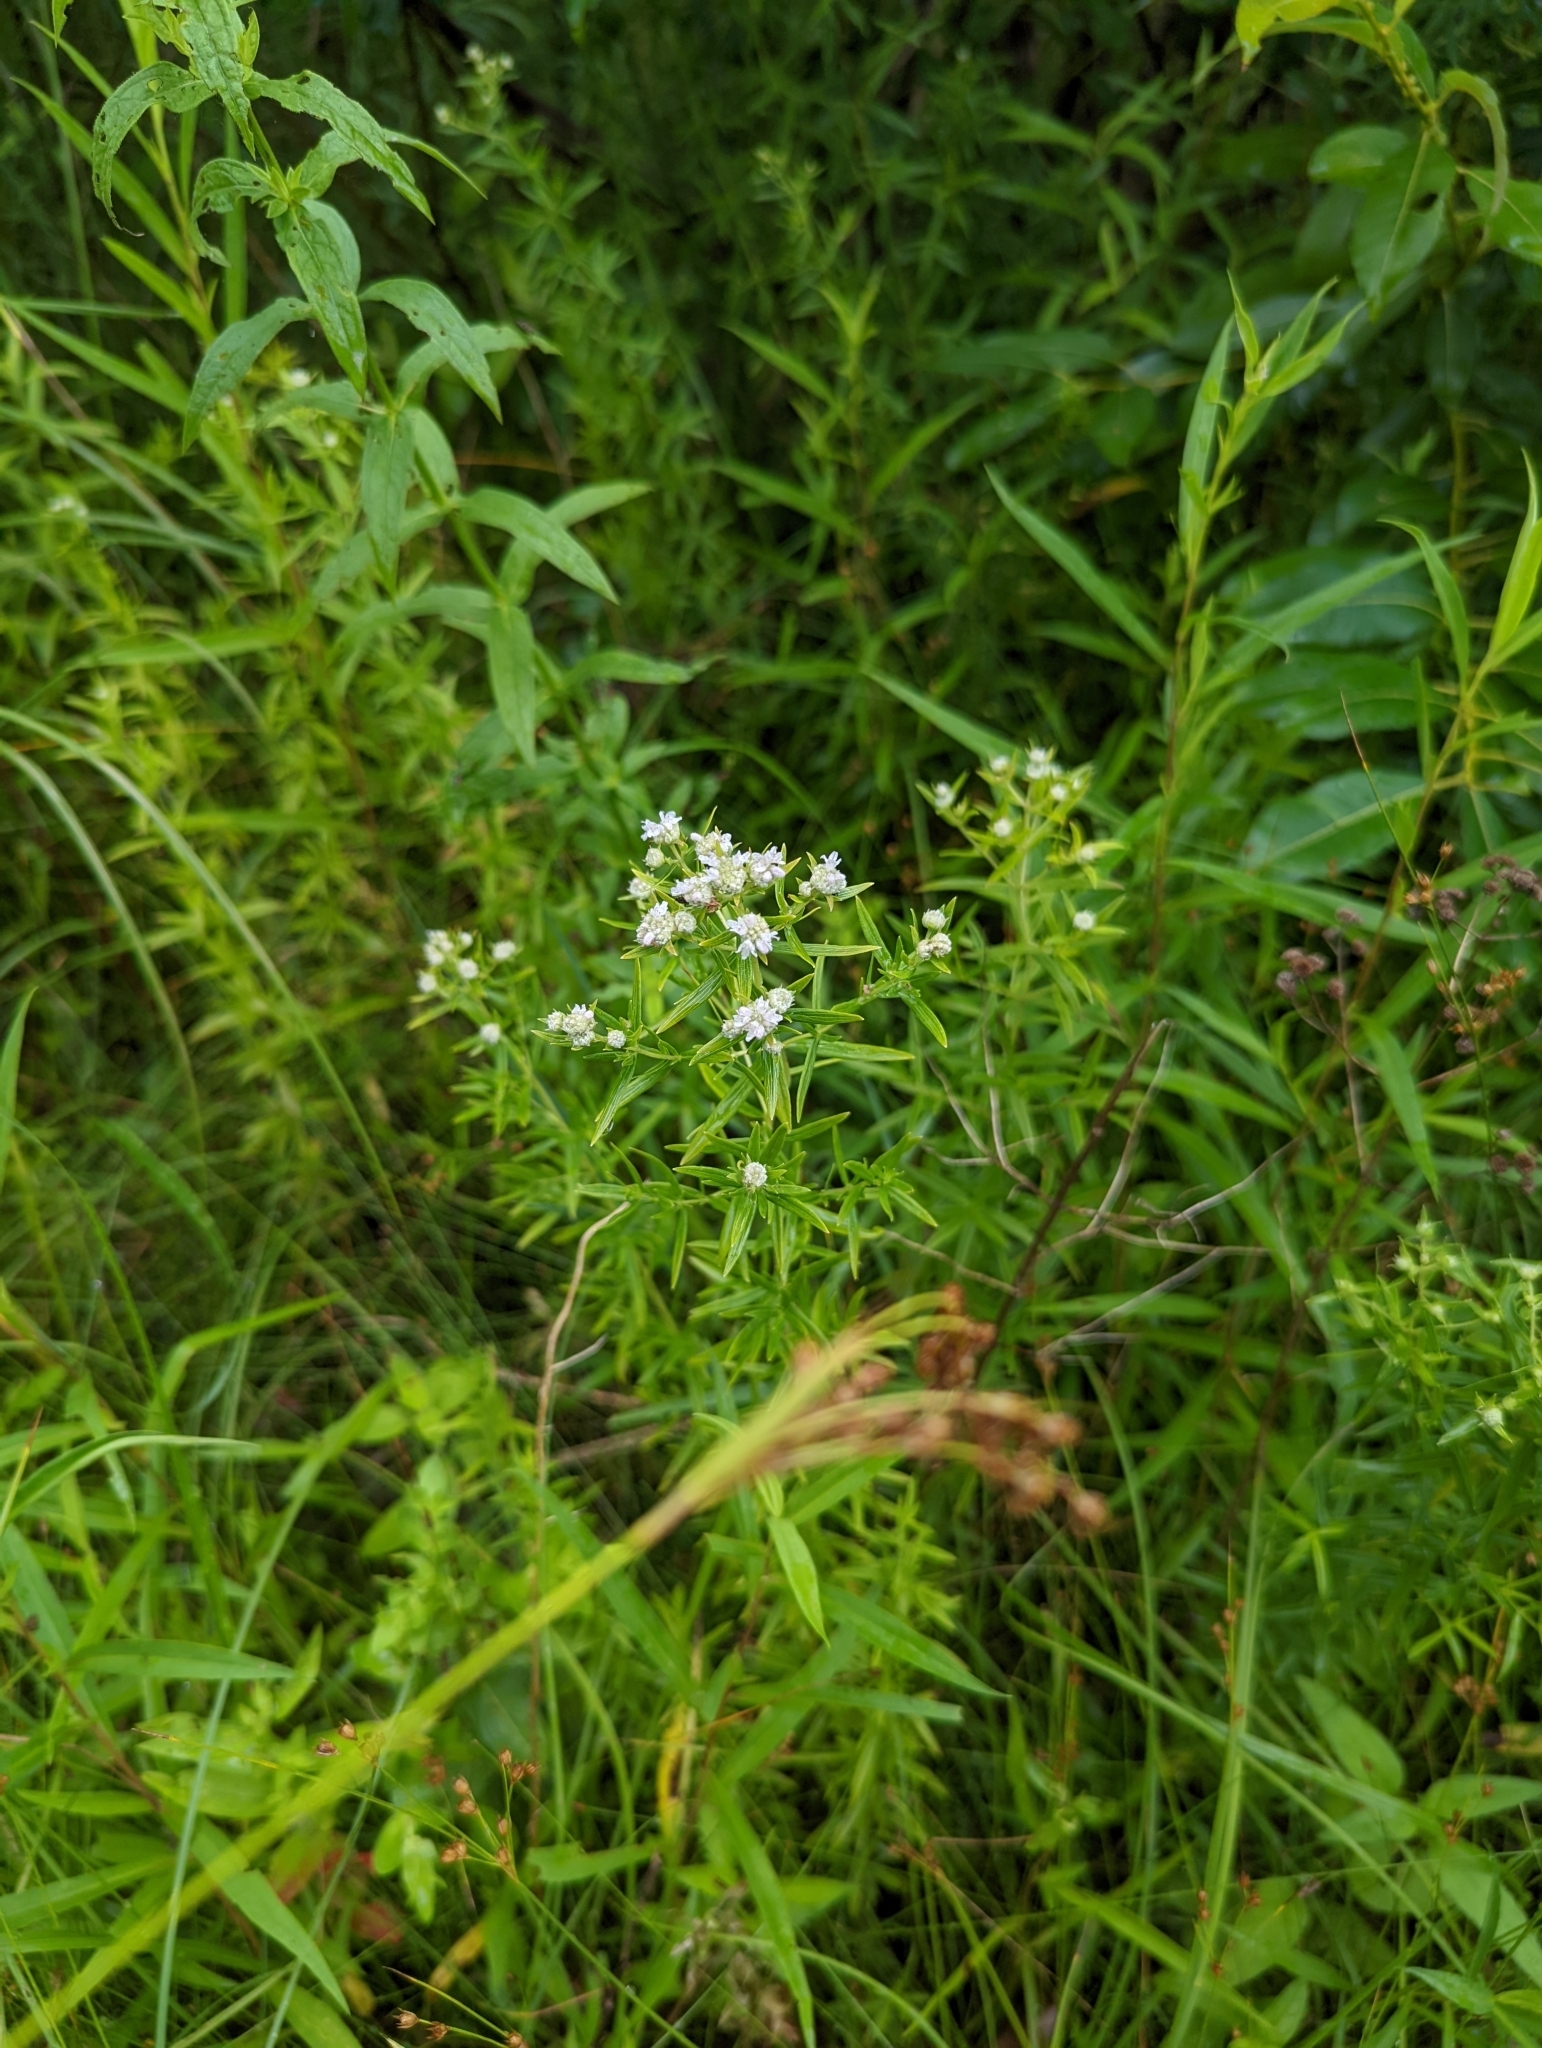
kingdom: Plantae
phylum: Tracheophyta
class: Magnoliopsida
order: Lamiales
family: Lamiaceae
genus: Pycnanthemum
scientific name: Pycnanthemum tenuifolium
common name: Narrow-leaf mountain-mint
